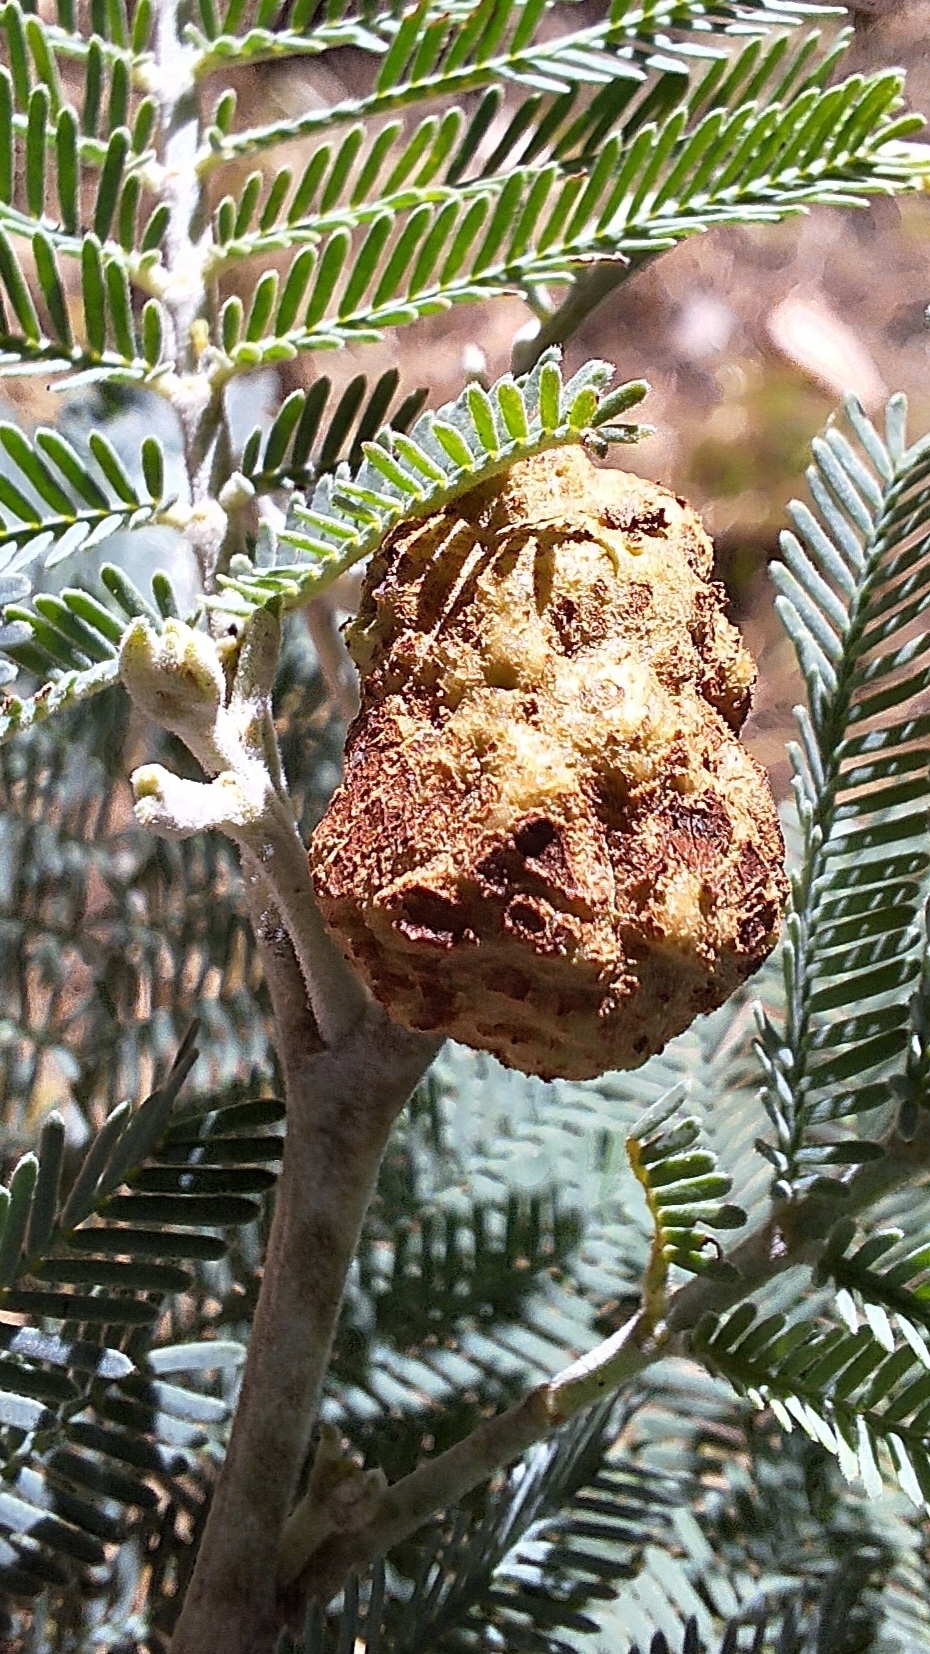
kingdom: Fungi
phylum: Basidiomycota
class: Pucciniomycetes
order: Pucciniales
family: Uromycladiaceae
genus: Uromycladium
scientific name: Uromycladium murphyi
